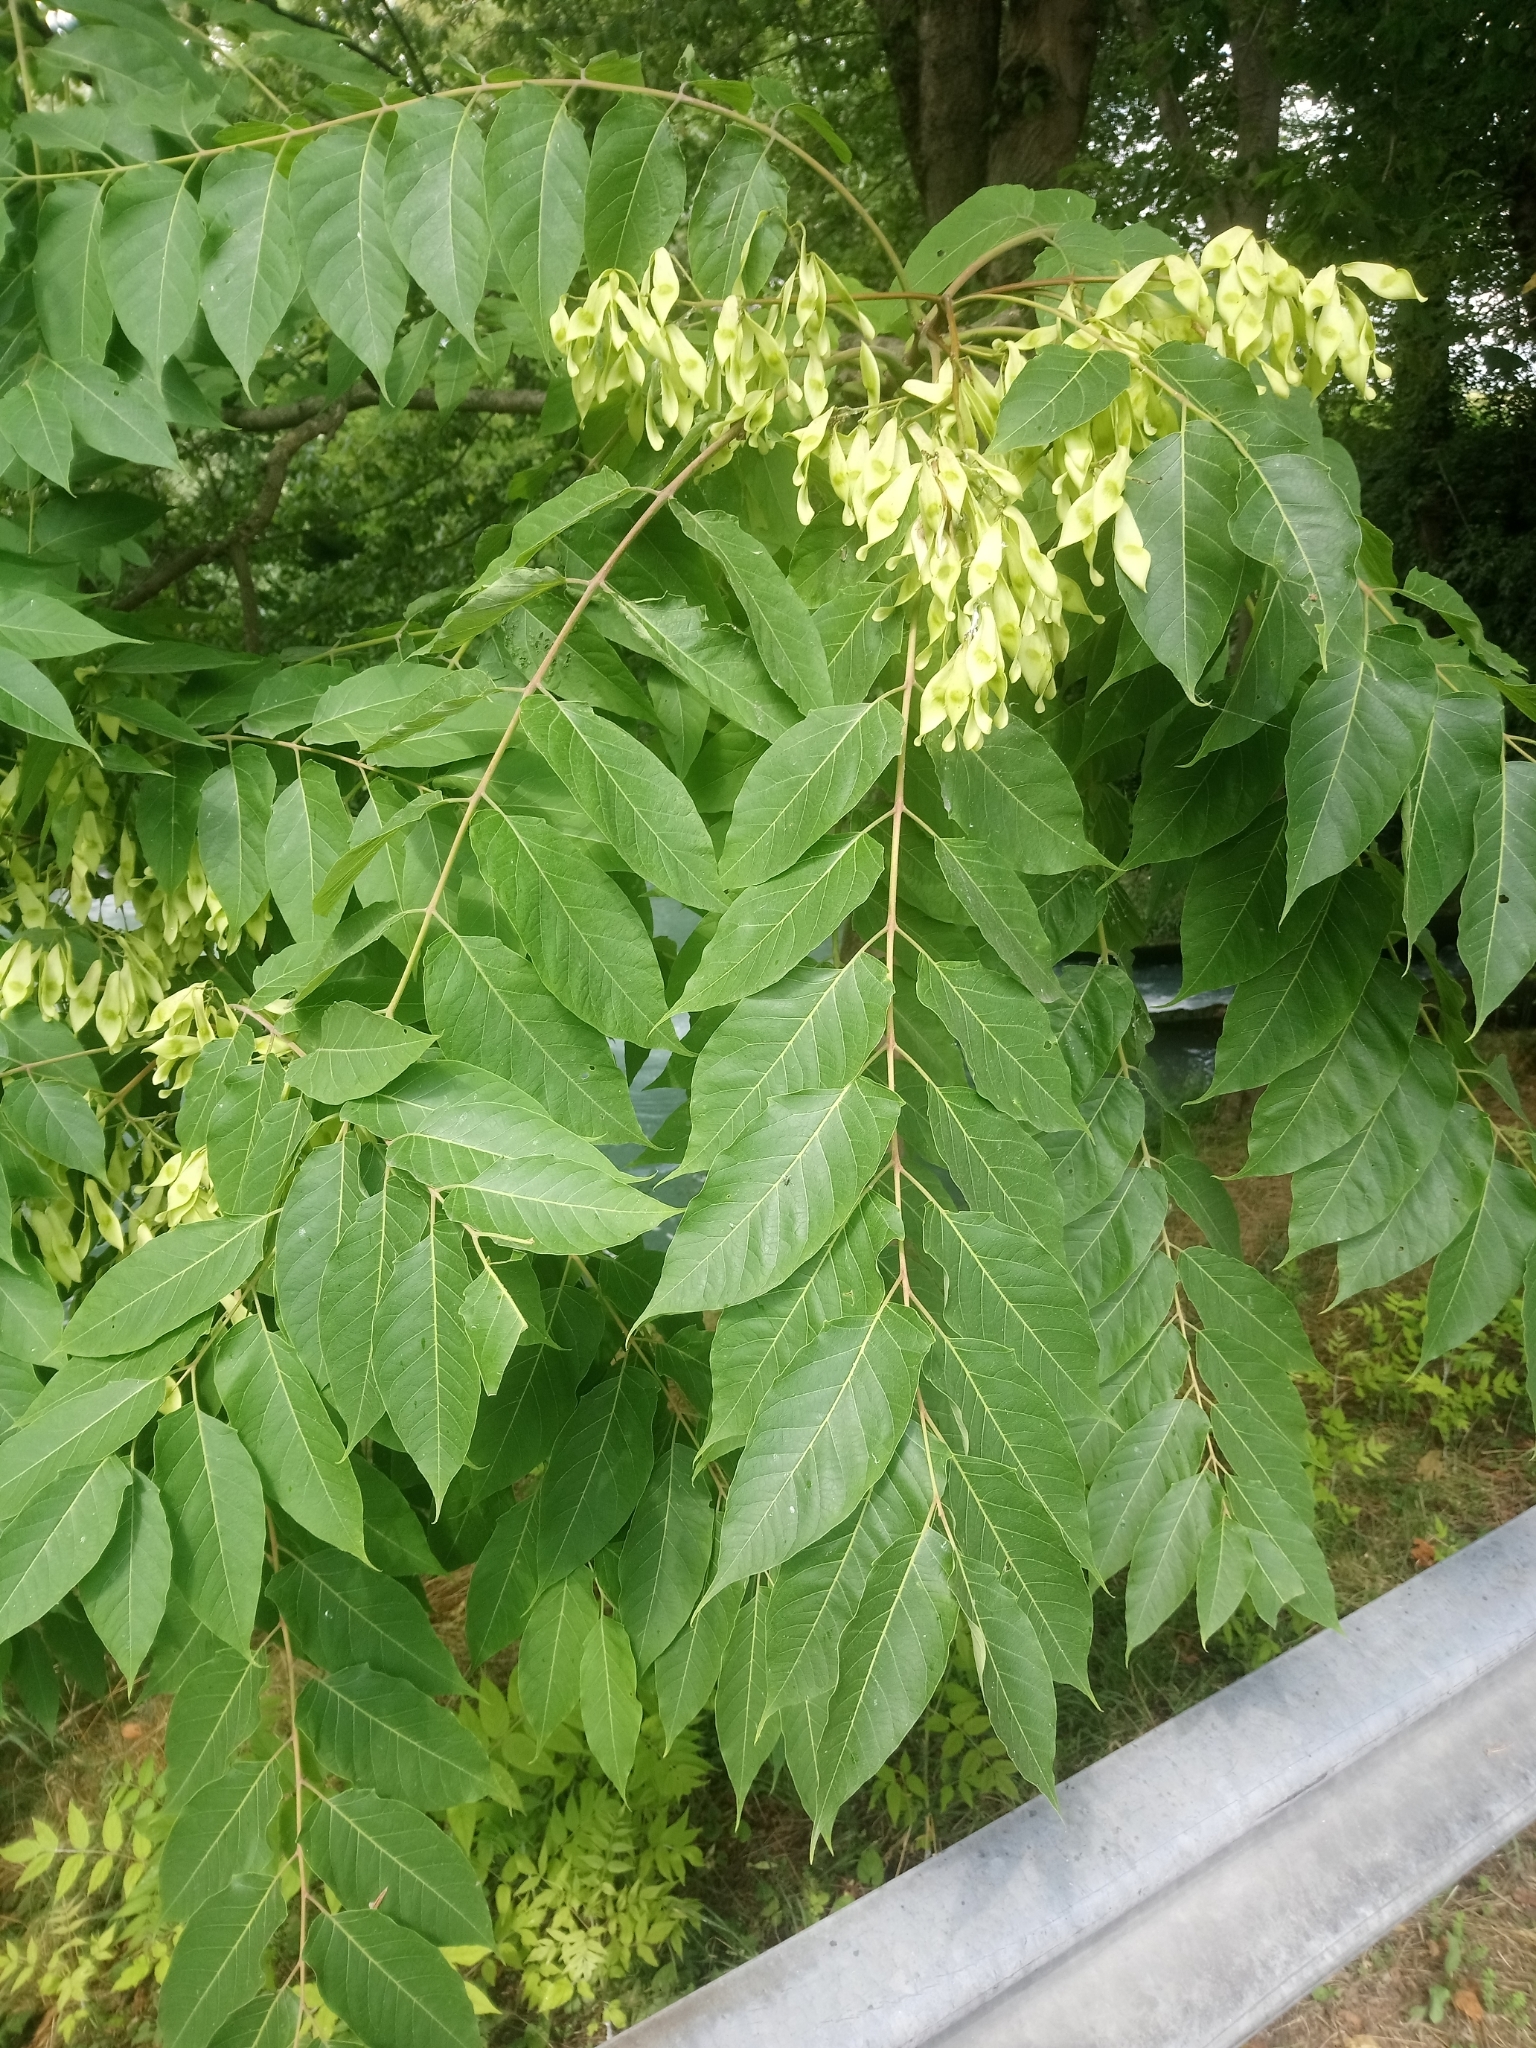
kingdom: Plantae
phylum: Tracheophyta
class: Magnoliopsida
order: Sapindales
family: Simaroubaceae
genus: Ailanthus
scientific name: Ailanthus altissima
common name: Tree-of-heaven
